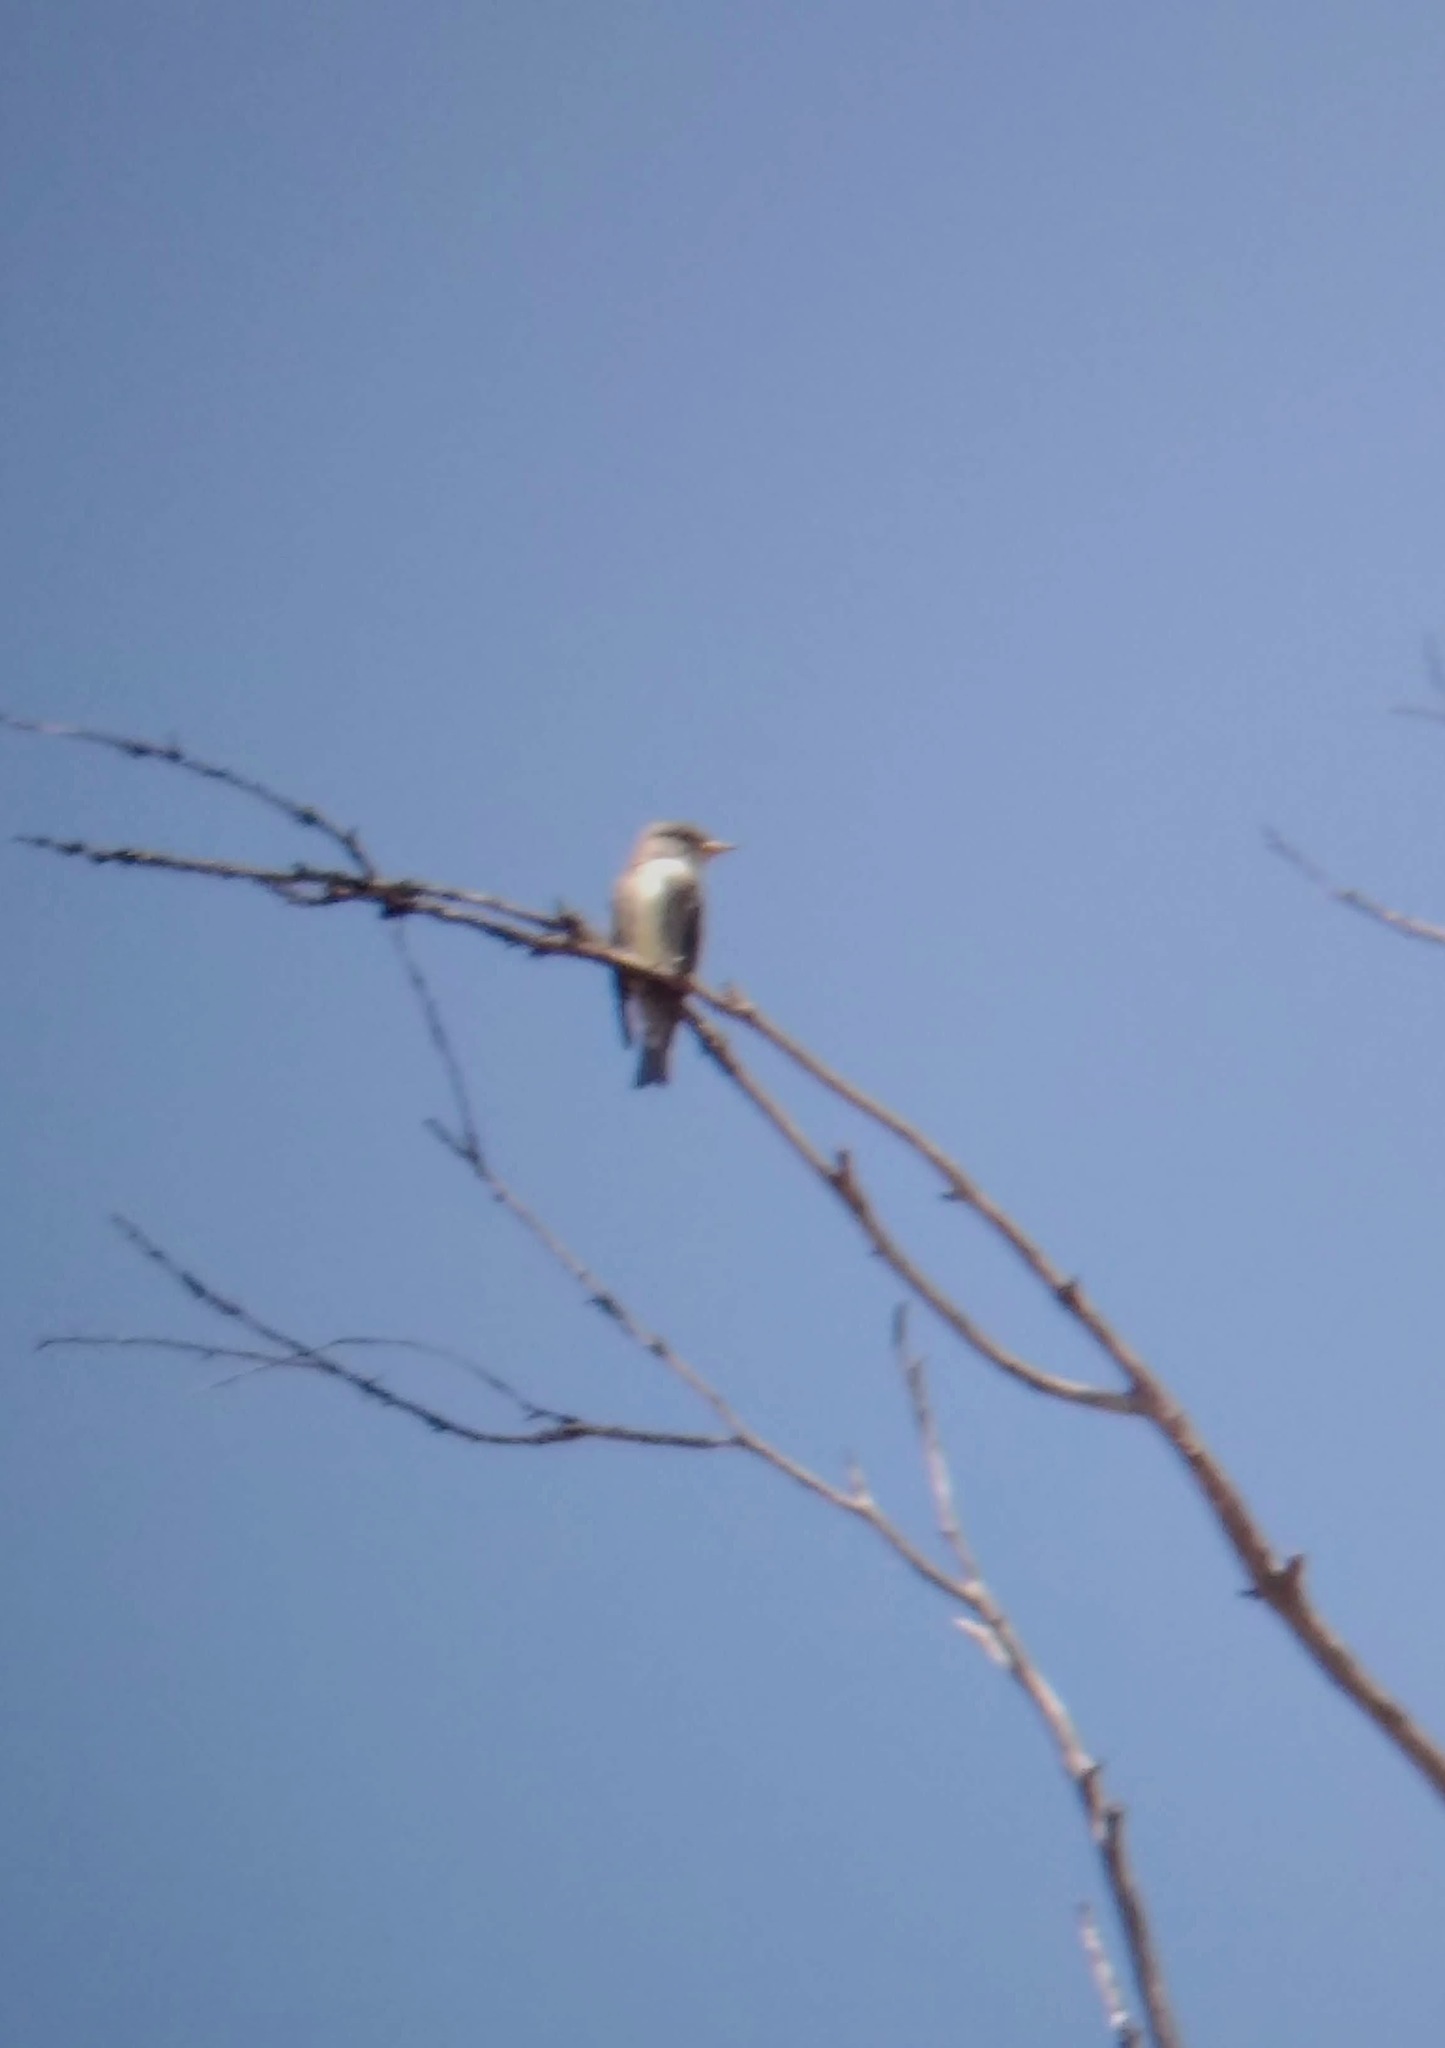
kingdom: Animalia
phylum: Chordata
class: Aves
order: Passeriformes
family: Tyrannidae
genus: Contopus
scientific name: Contopus cooperi
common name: Olive-sided flycatcher
